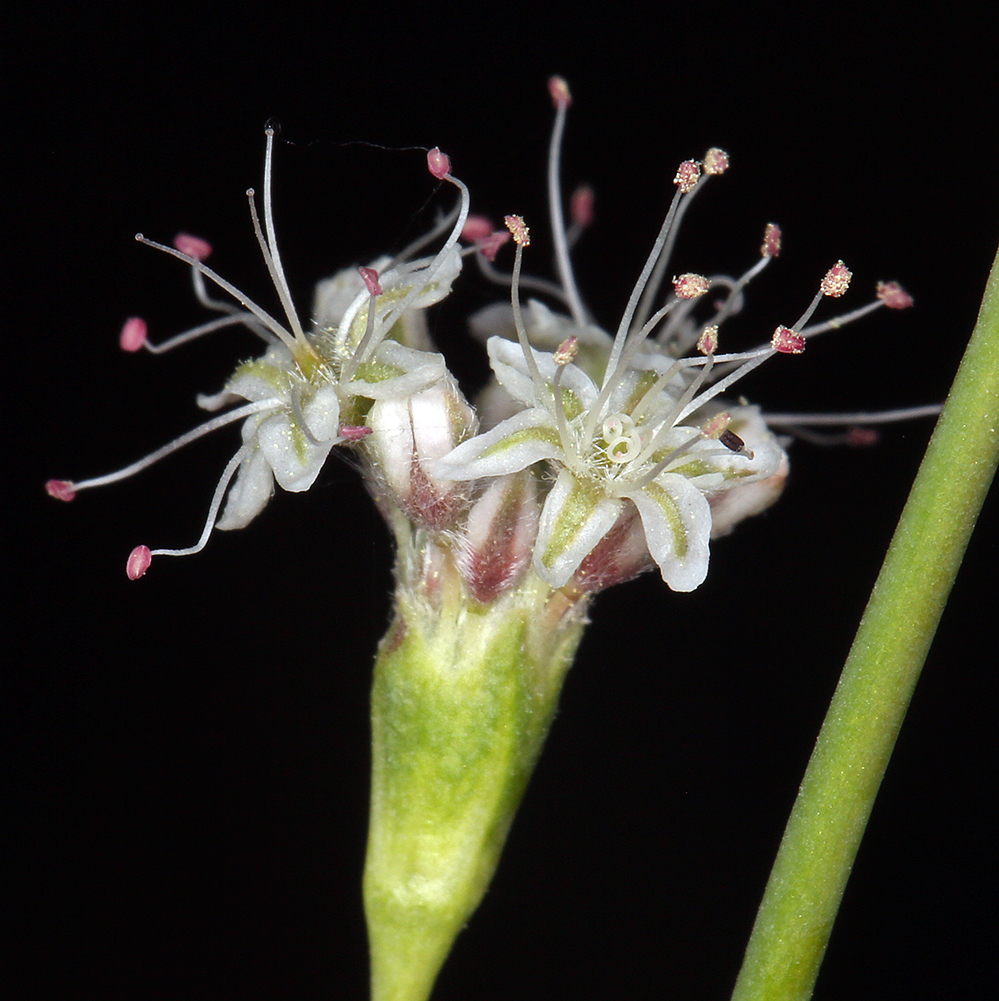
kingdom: Plantae
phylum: Tracheophyta
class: Magnoliopsida
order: Caryophyllales
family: Polygonaceae
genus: Eriogonum
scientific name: Eriogonum elatum
